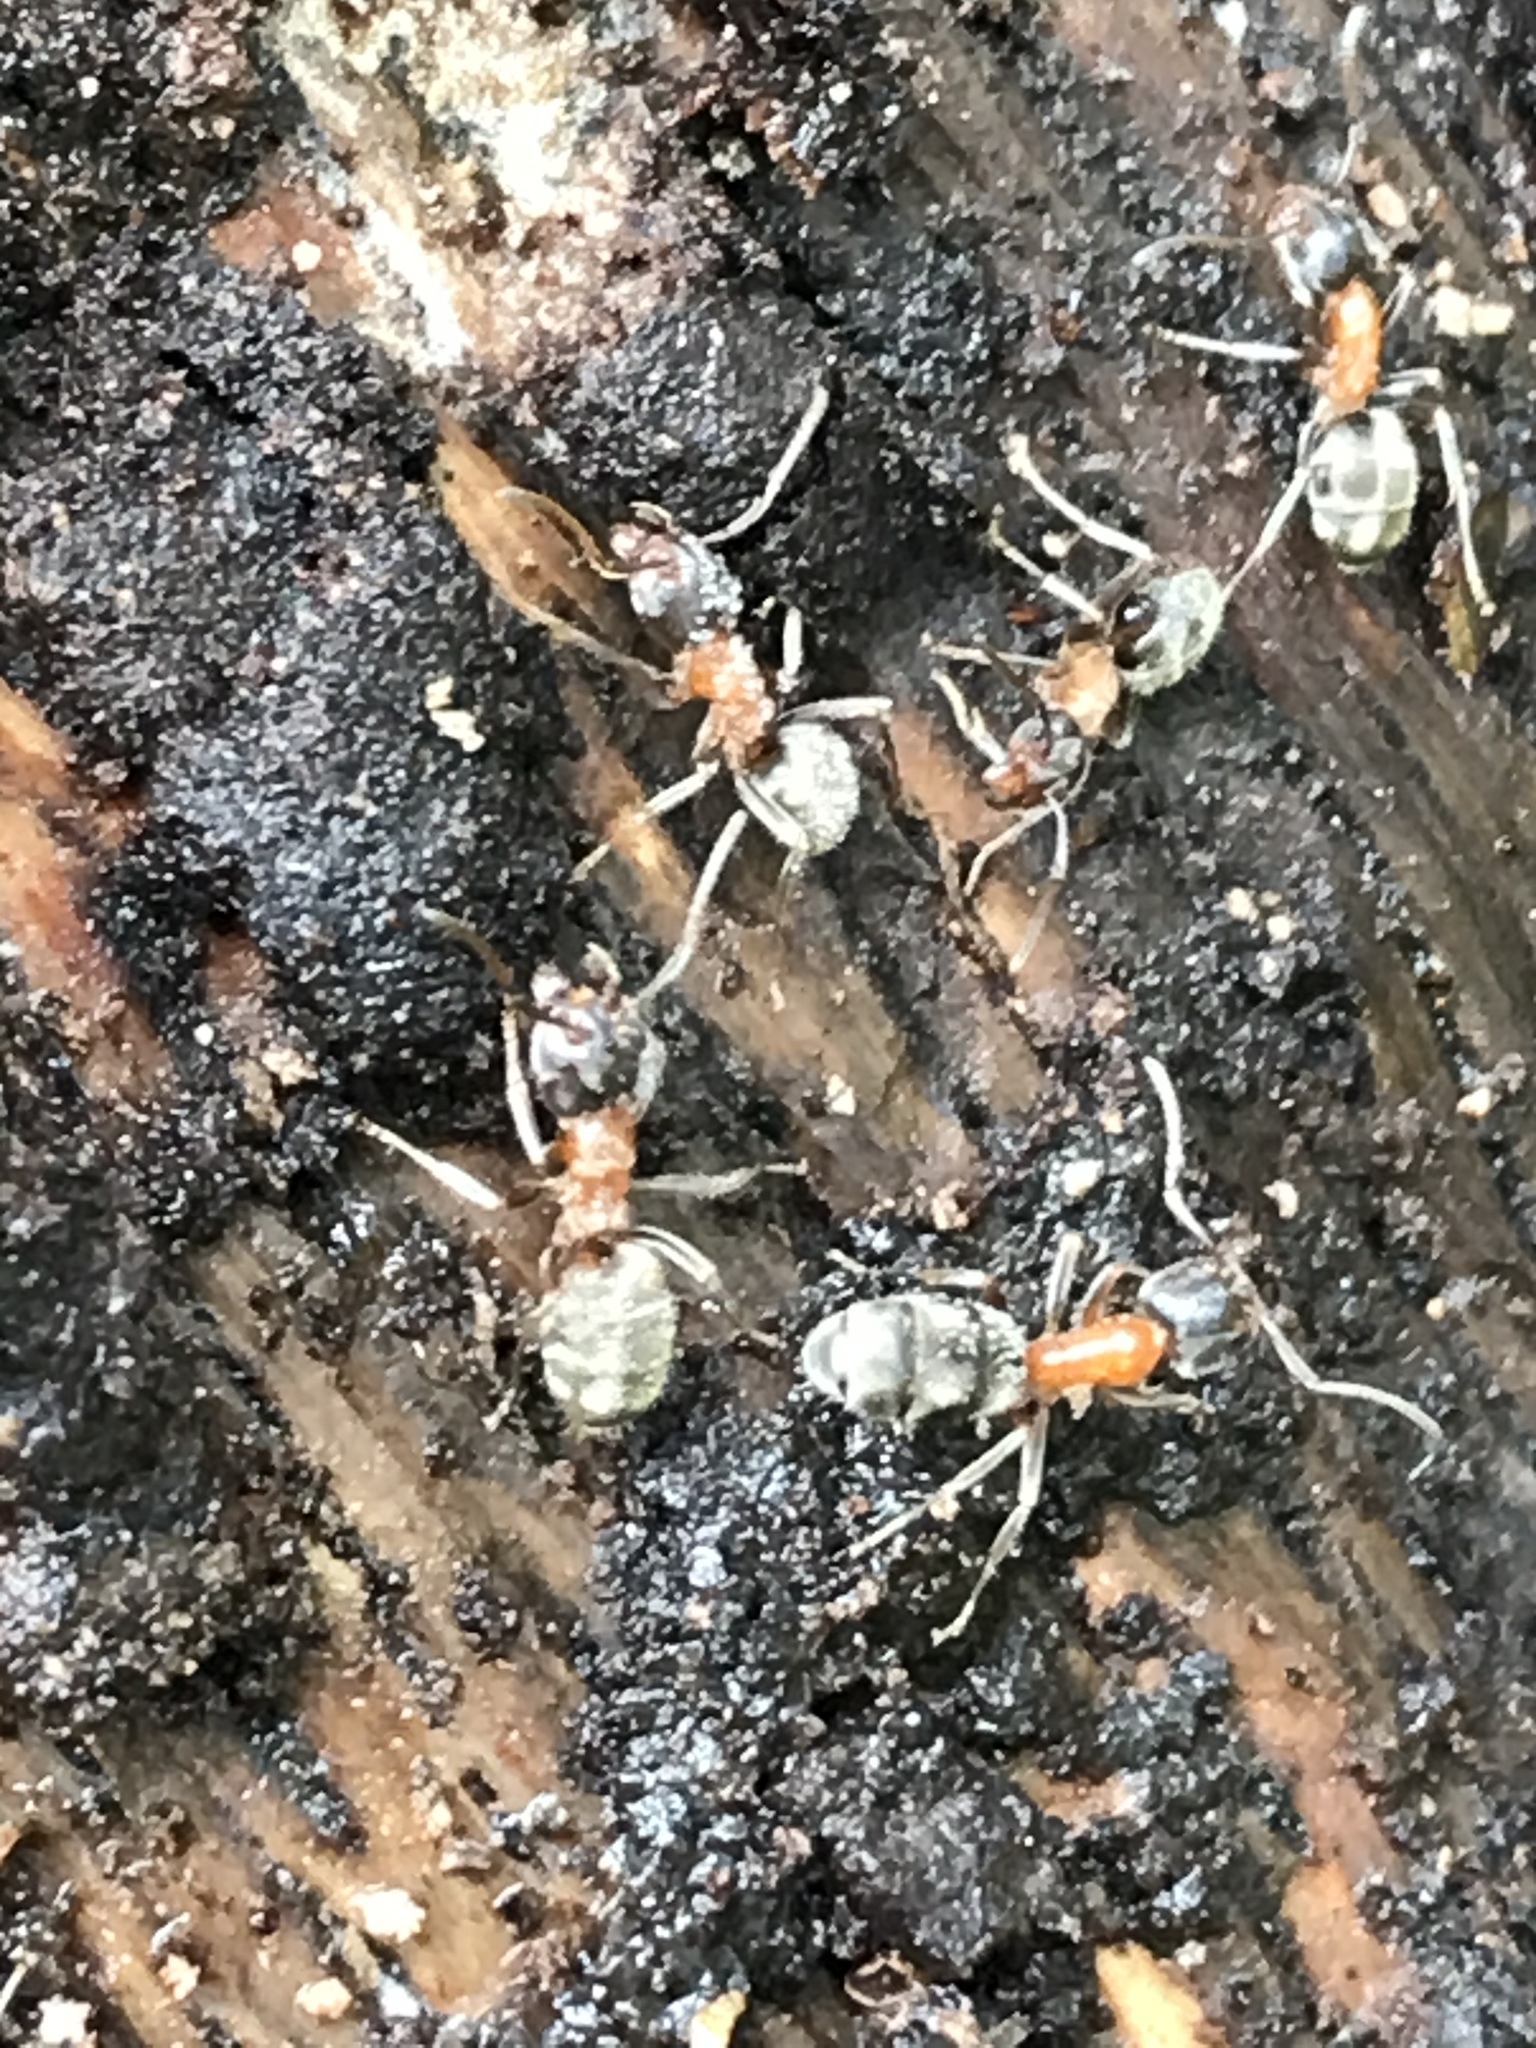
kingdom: Animalia
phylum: Arthropoda
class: Insecta
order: Hymenoptera
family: Formicidae
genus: Liometopum
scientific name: Liometopum occidentale
